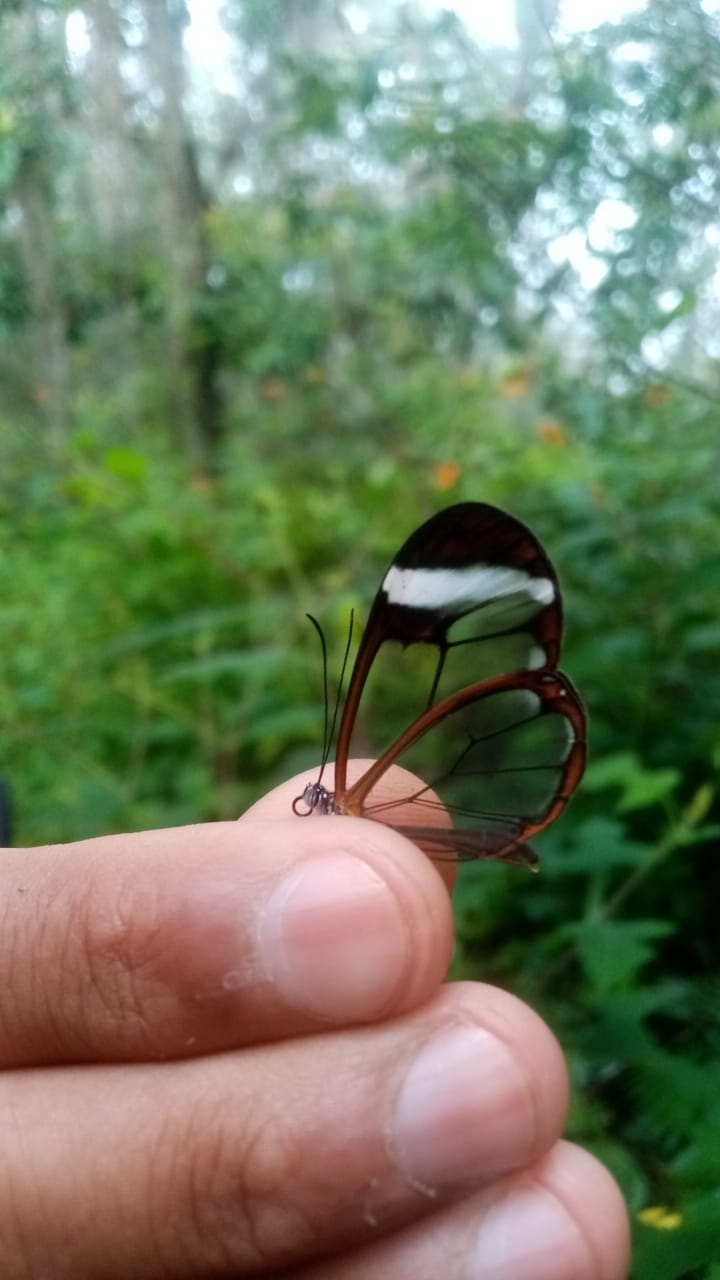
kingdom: Animalia
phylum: Arthropoda
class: Insecta
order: Lepidoptera
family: Nymphalidae
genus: Greta
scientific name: Greta morgane
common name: Thick-tipped greta
